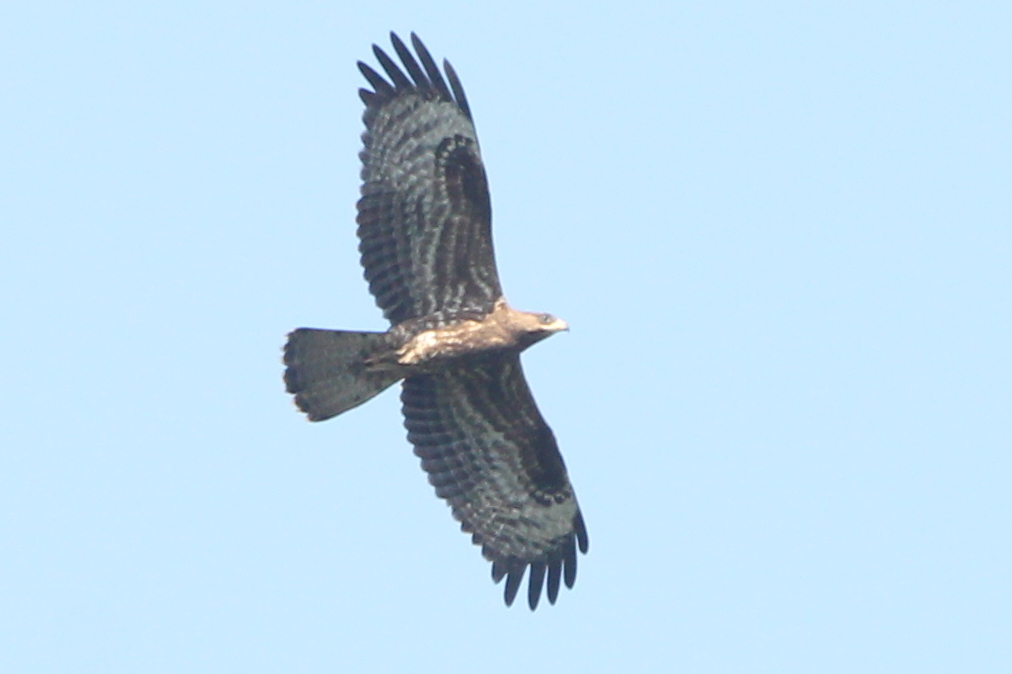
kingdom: Animalia
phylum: Chordata
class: Aves
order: Accipitriformes
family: Accipitridae
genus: Pernis
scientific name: Pernis apivorus
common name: European honey buzzard
